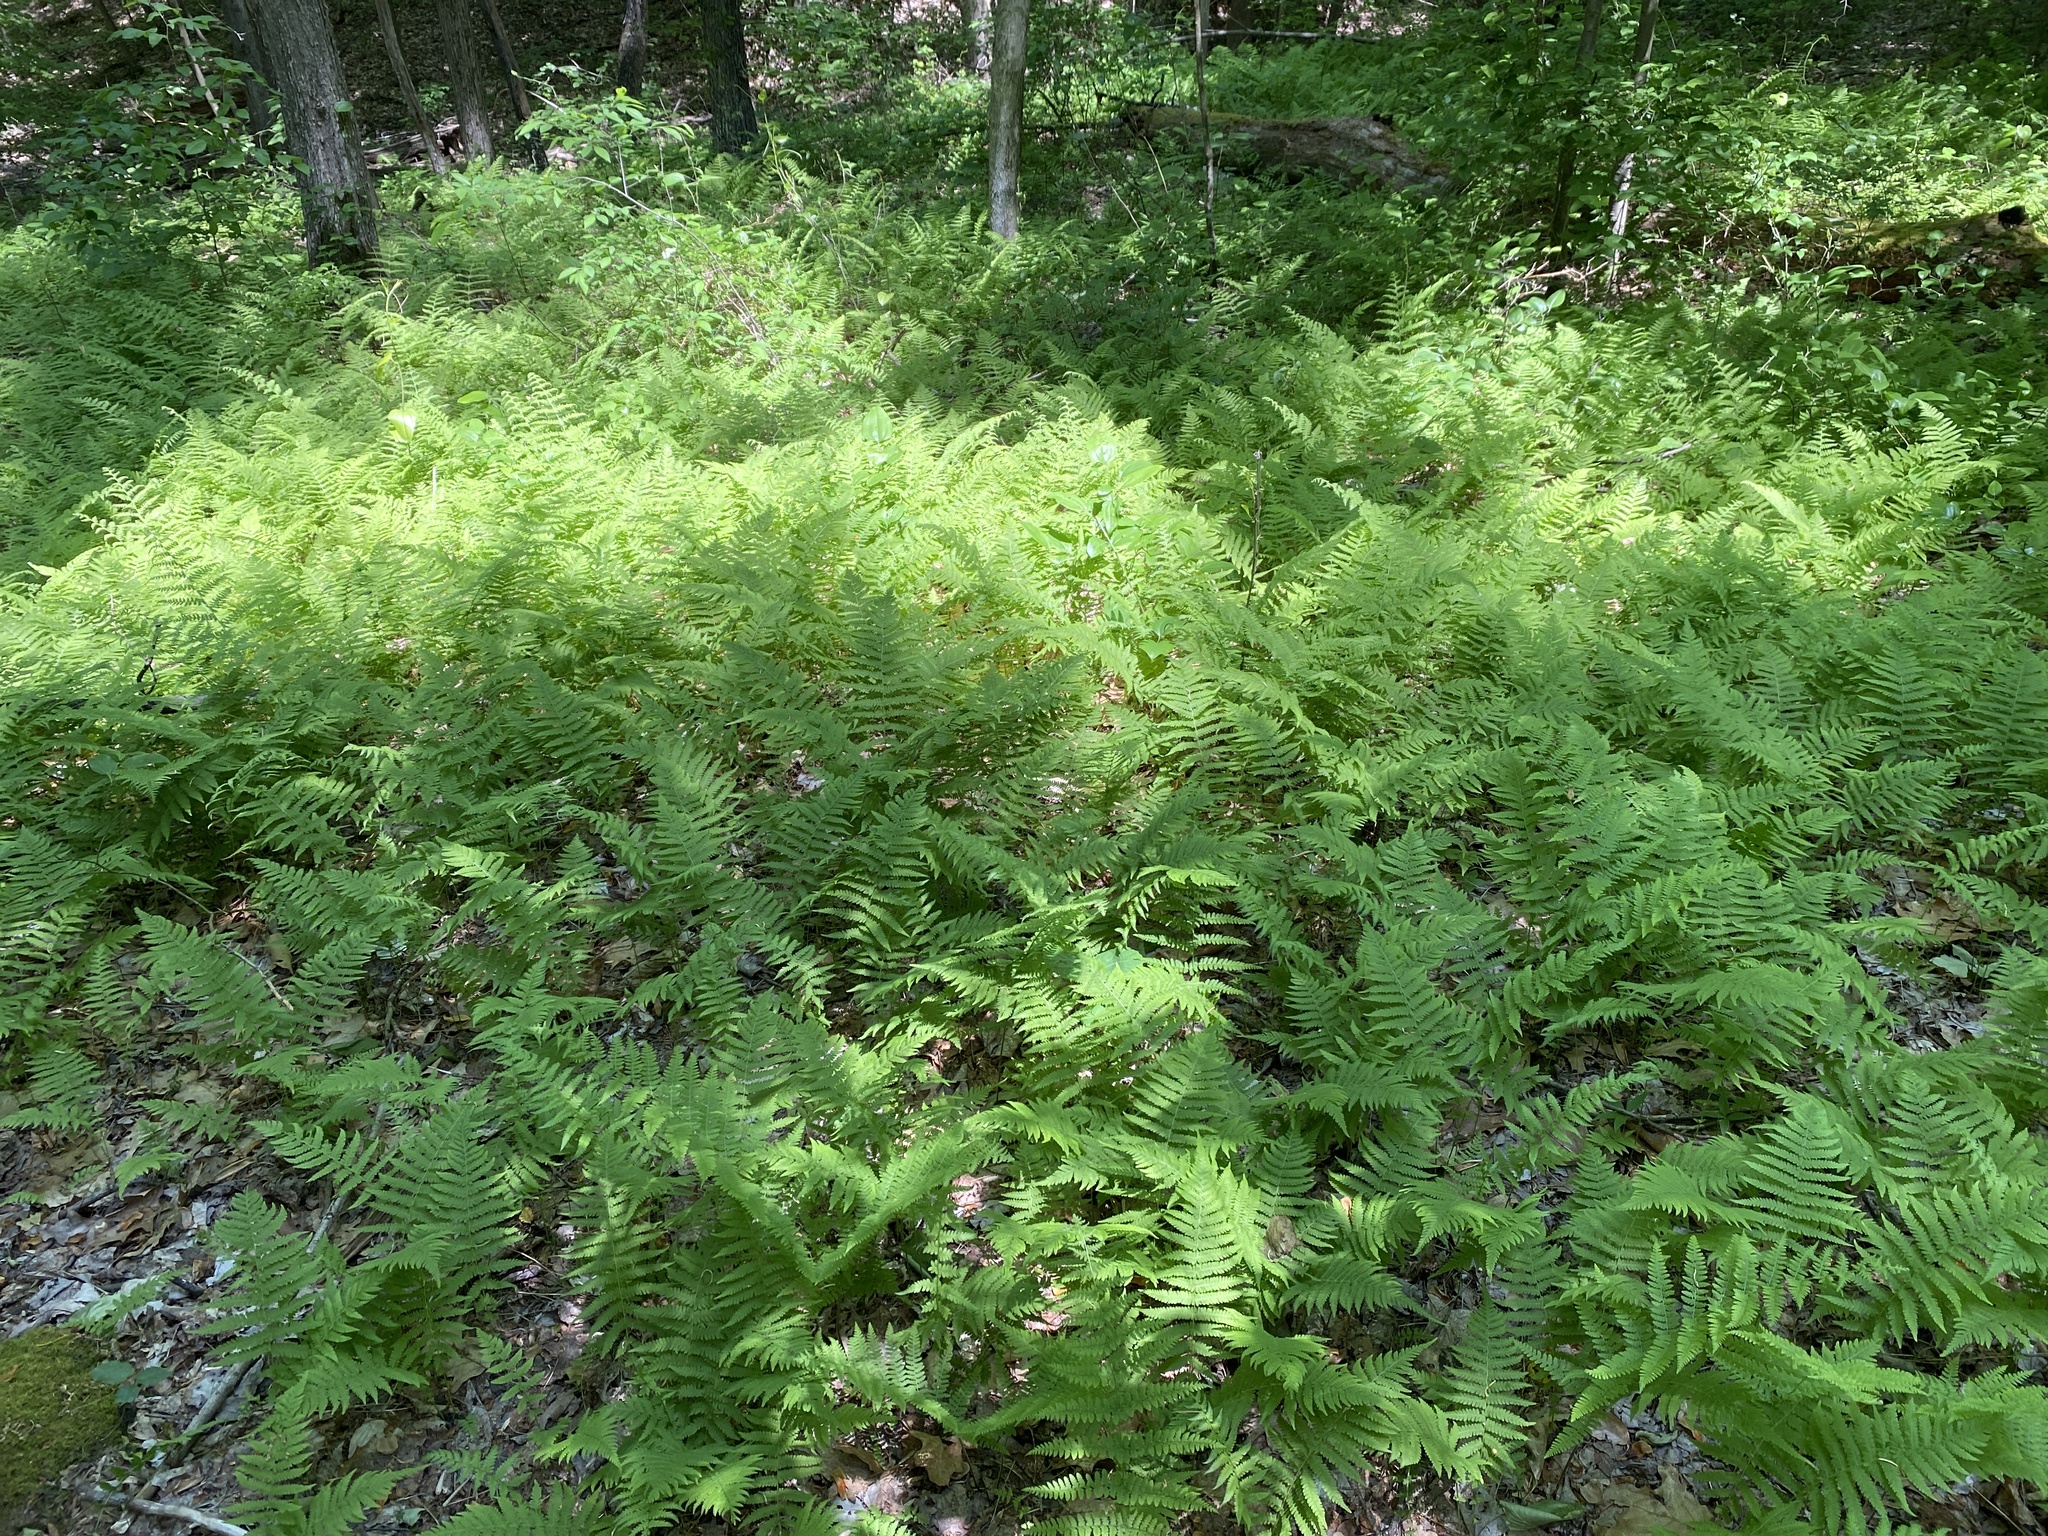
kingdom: Plantae
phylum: Tracheophyta
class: Polypodiopsida
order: Polypodiales
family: Dennstaedtiaceae
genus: Sitobolium
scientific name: Sitobolium punctilobum
